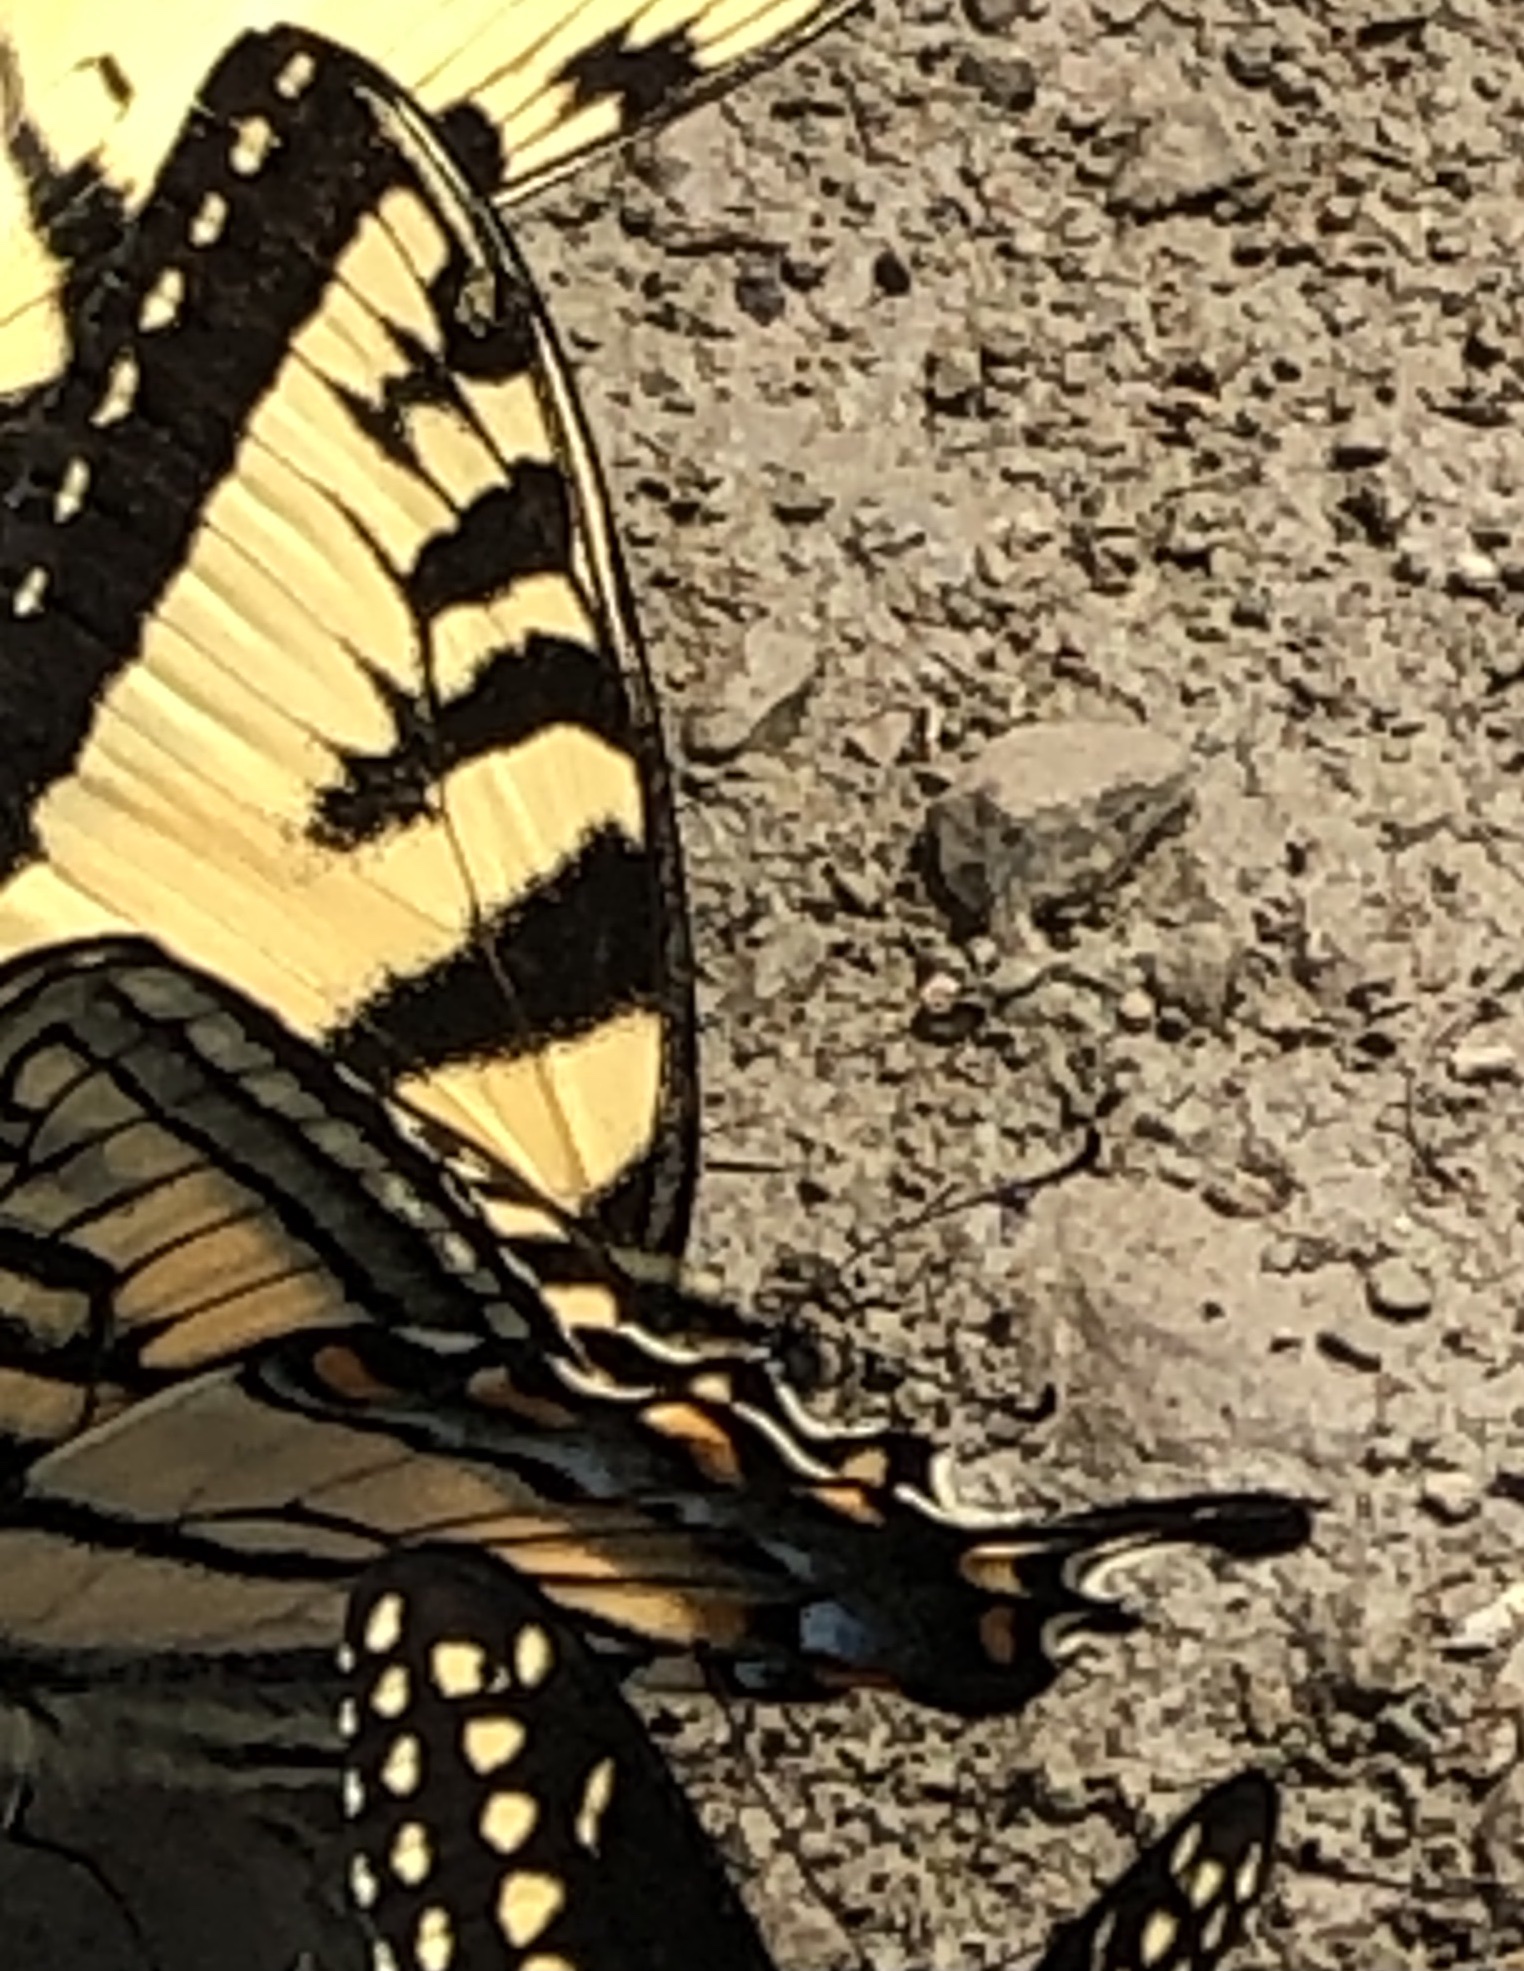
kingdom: Animalia
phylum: Arthropoda
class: Insecta
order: Lepidoptera
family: Papilionidae
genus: Papilio
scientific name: Papilio canadensis
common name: Canadian tiger swallowtail
